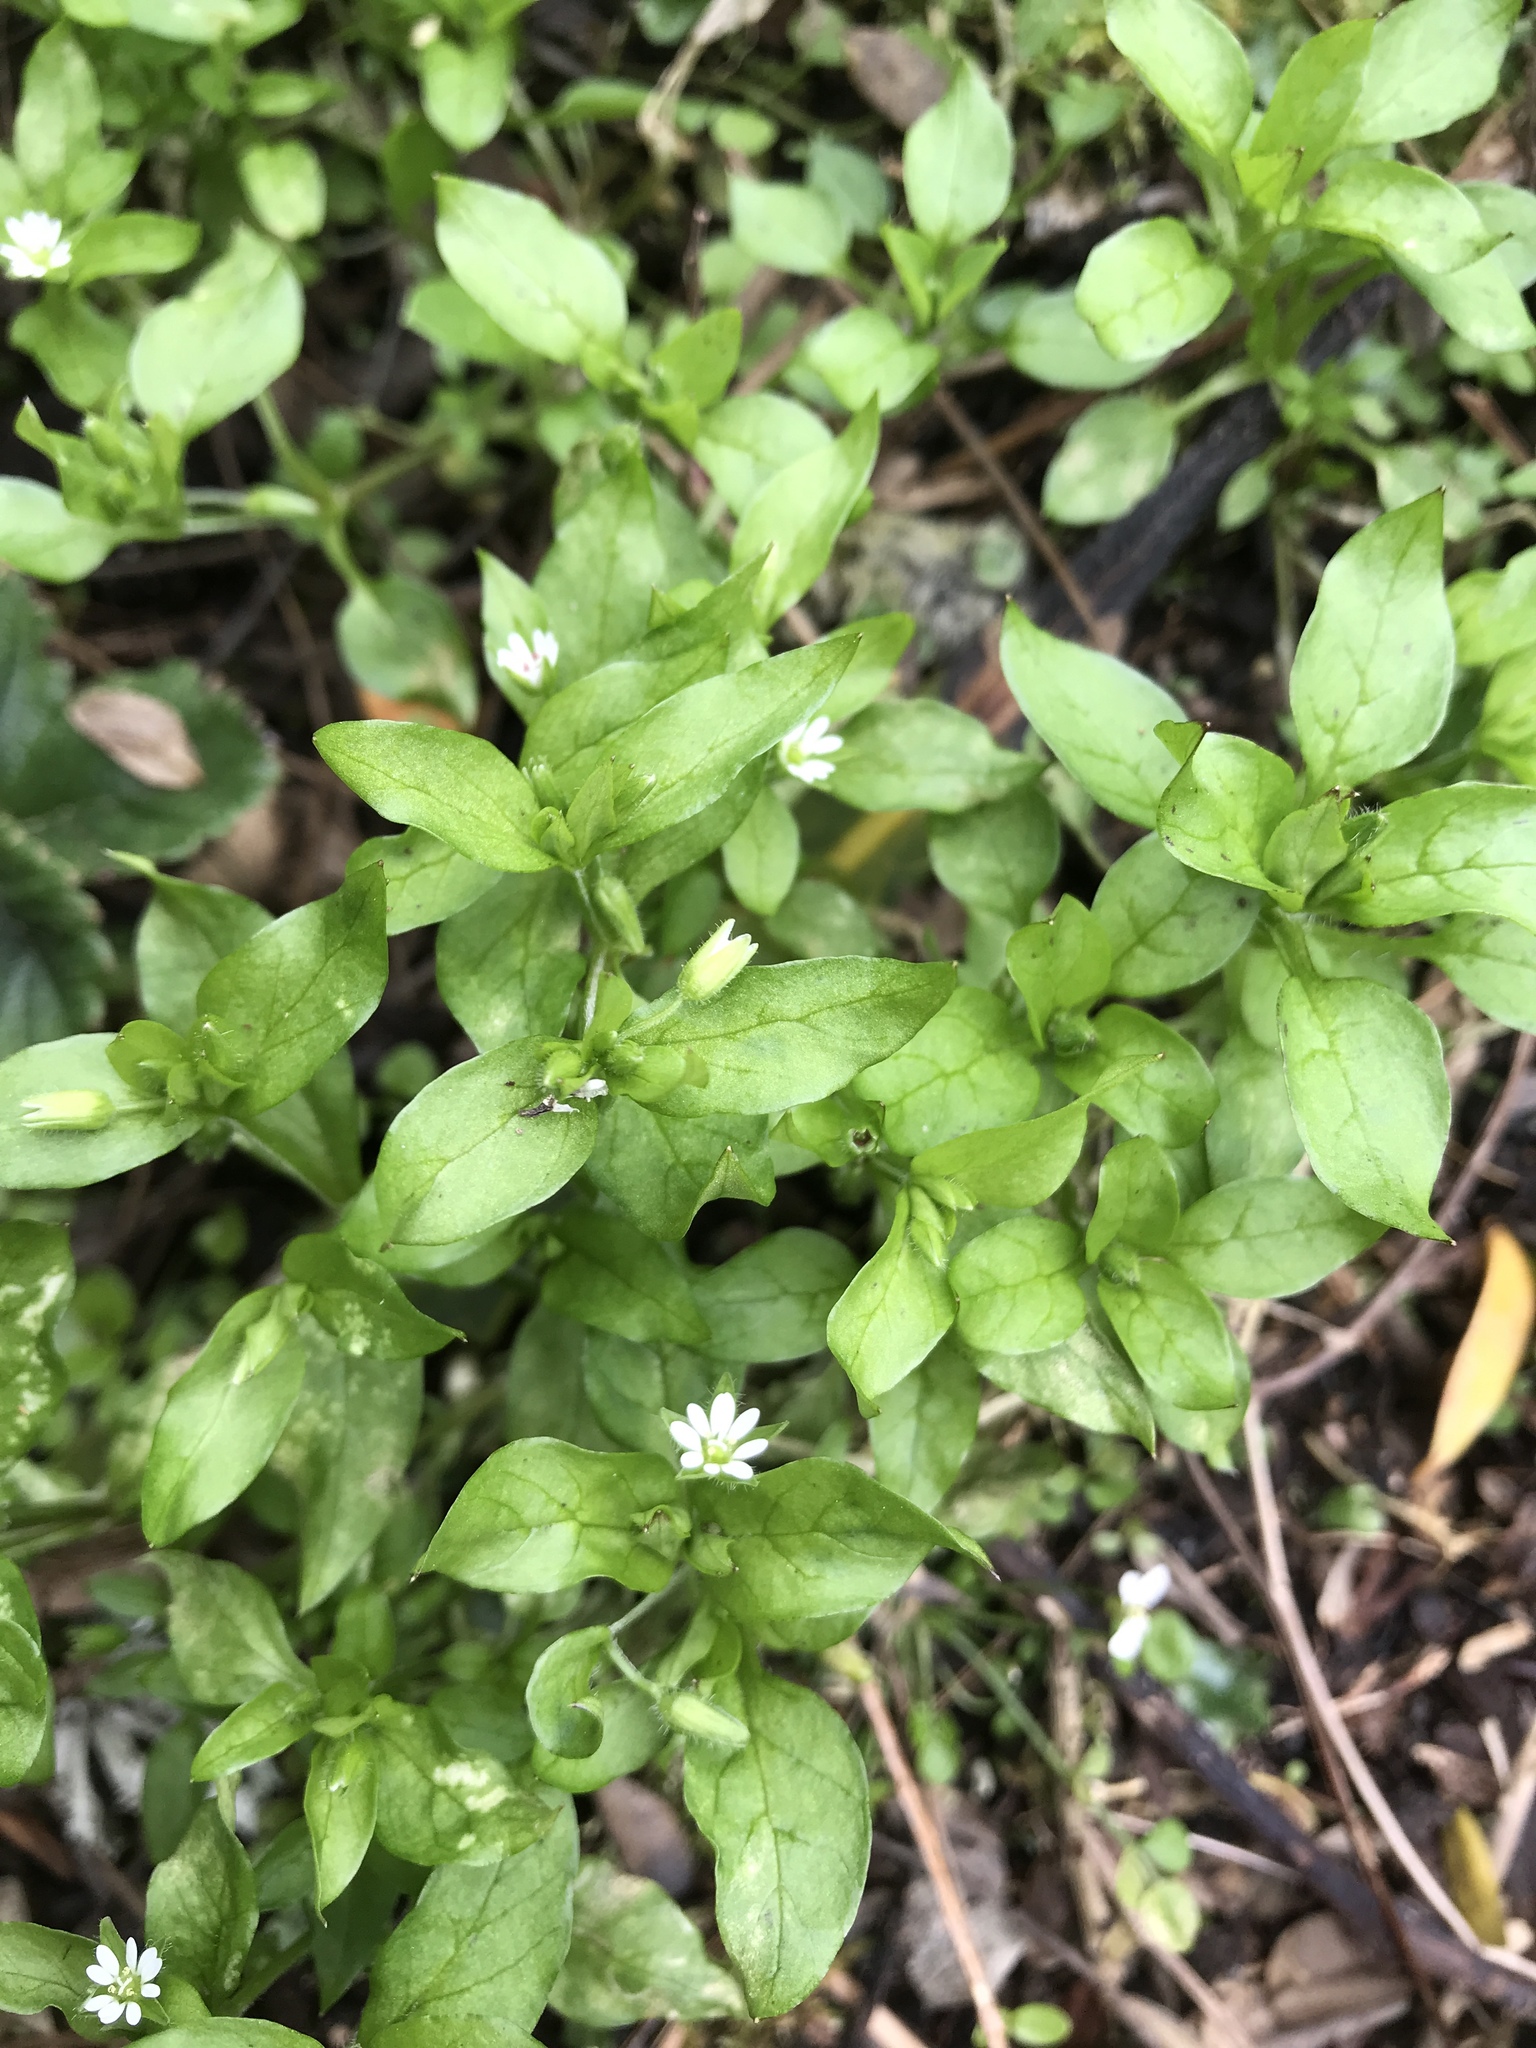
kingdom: Plantae
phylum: Tracheophyta
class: Magnoliopsida
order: Caryophyllales
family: Caryophyllaceae
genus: Stellaria
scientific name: Stellaria media
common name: Common chickweed
